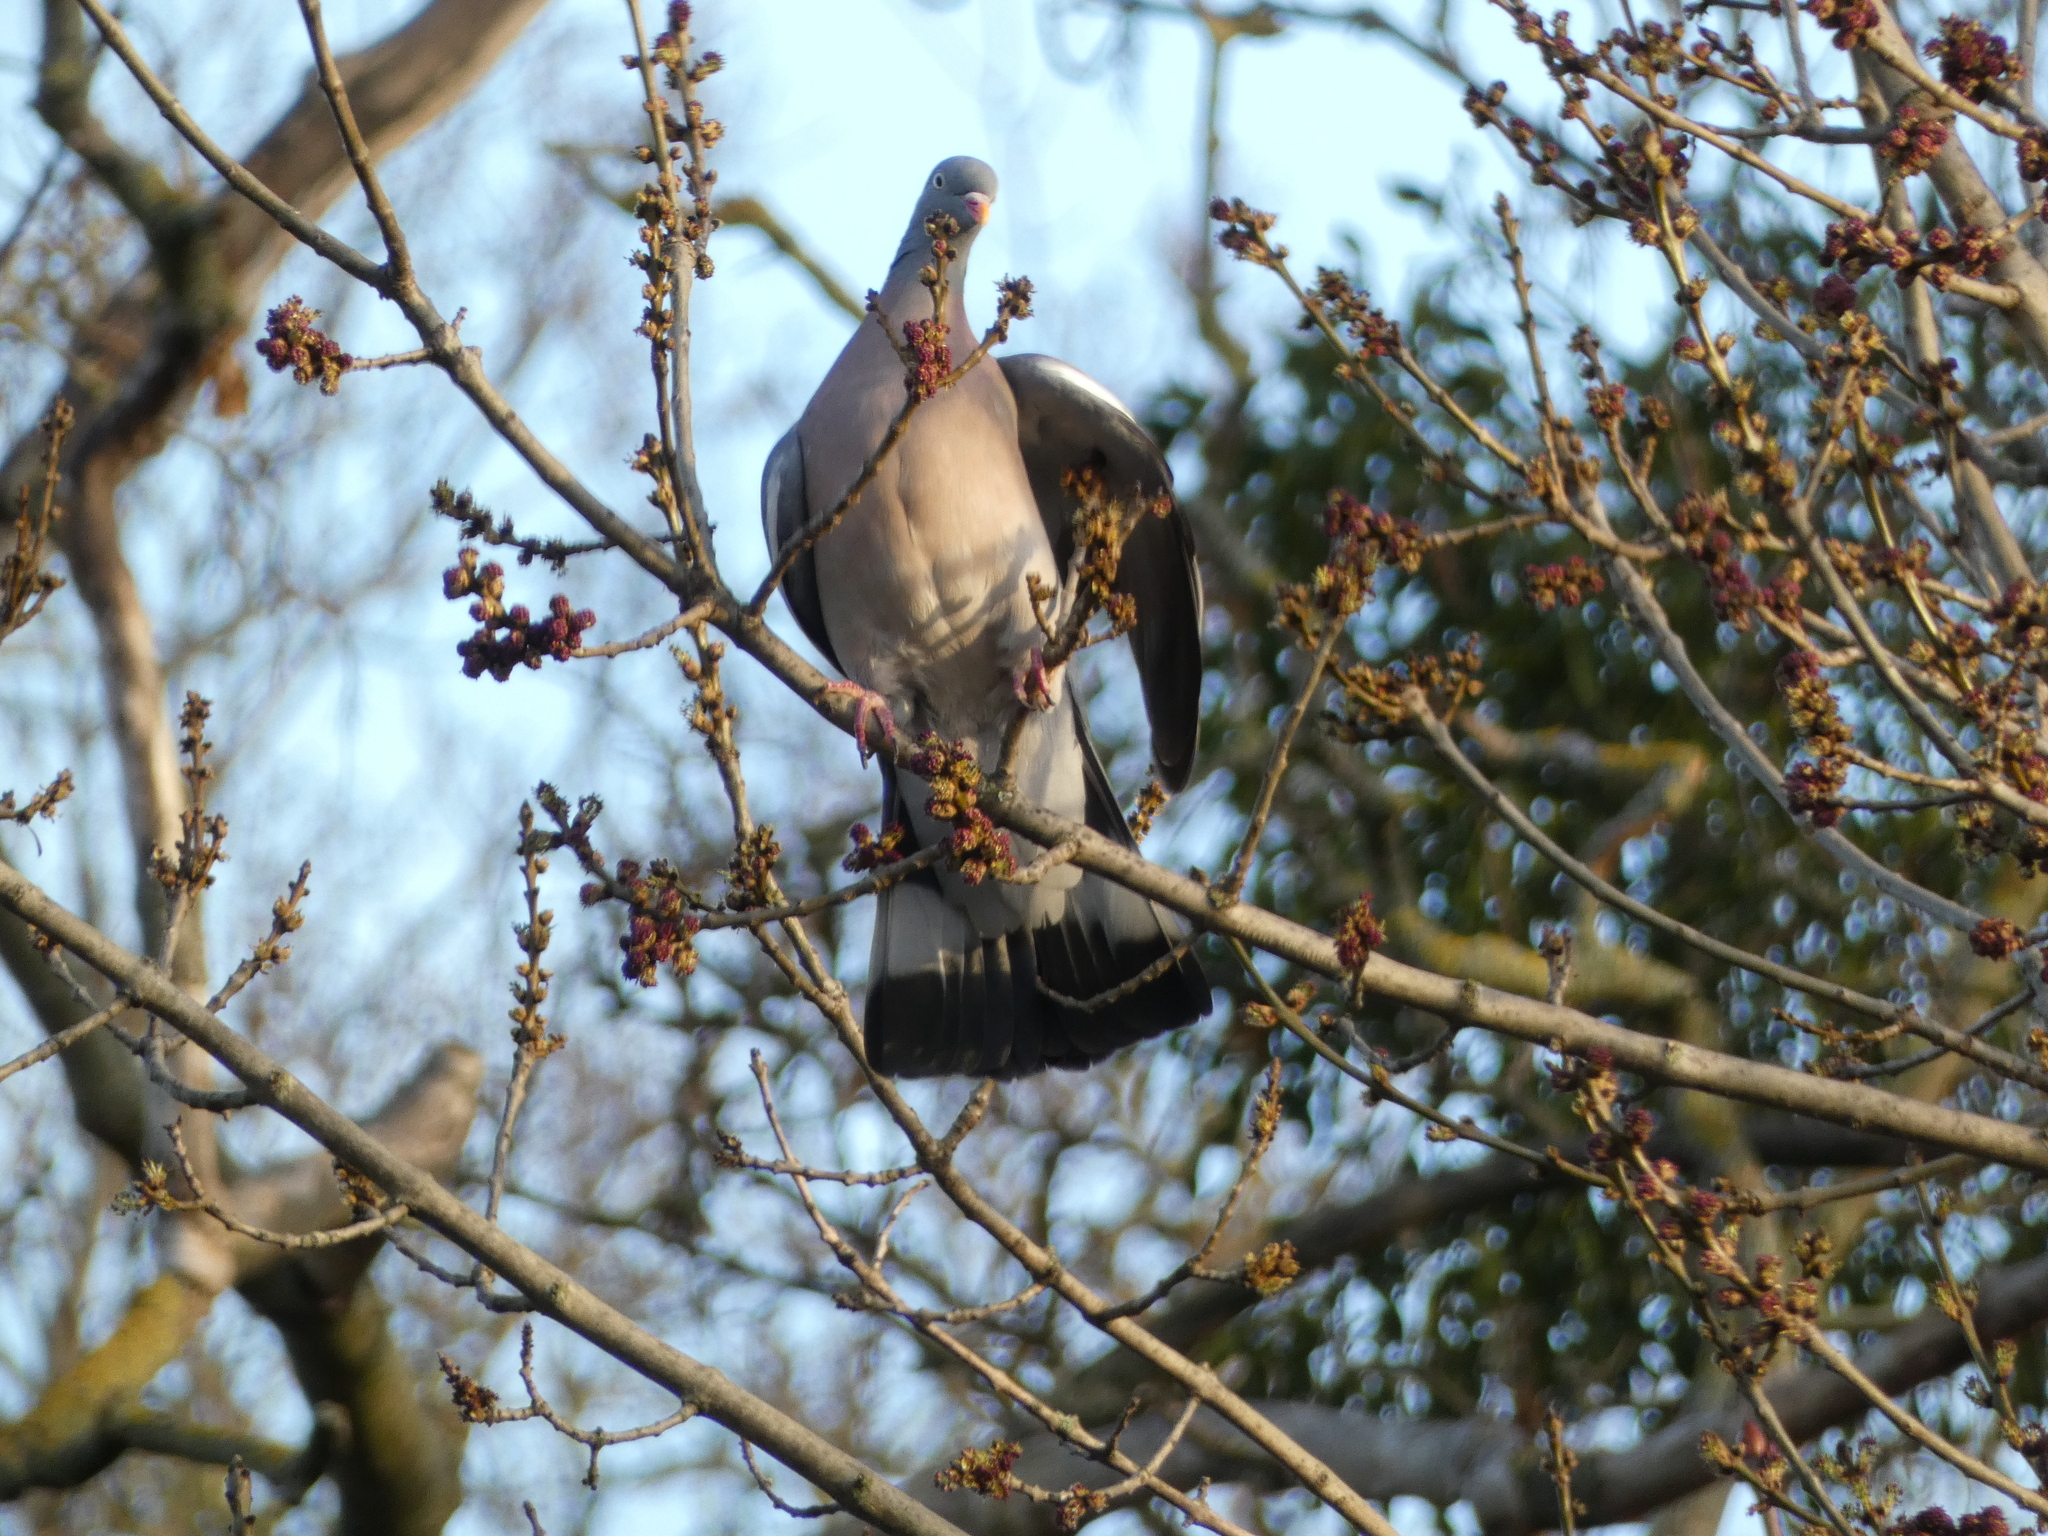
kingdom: Animalia
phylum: Chordata
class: Aves
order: Columbiformes
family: Columbidae
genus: Columba
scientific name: Columba palumbus
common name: Common wood pigeon
